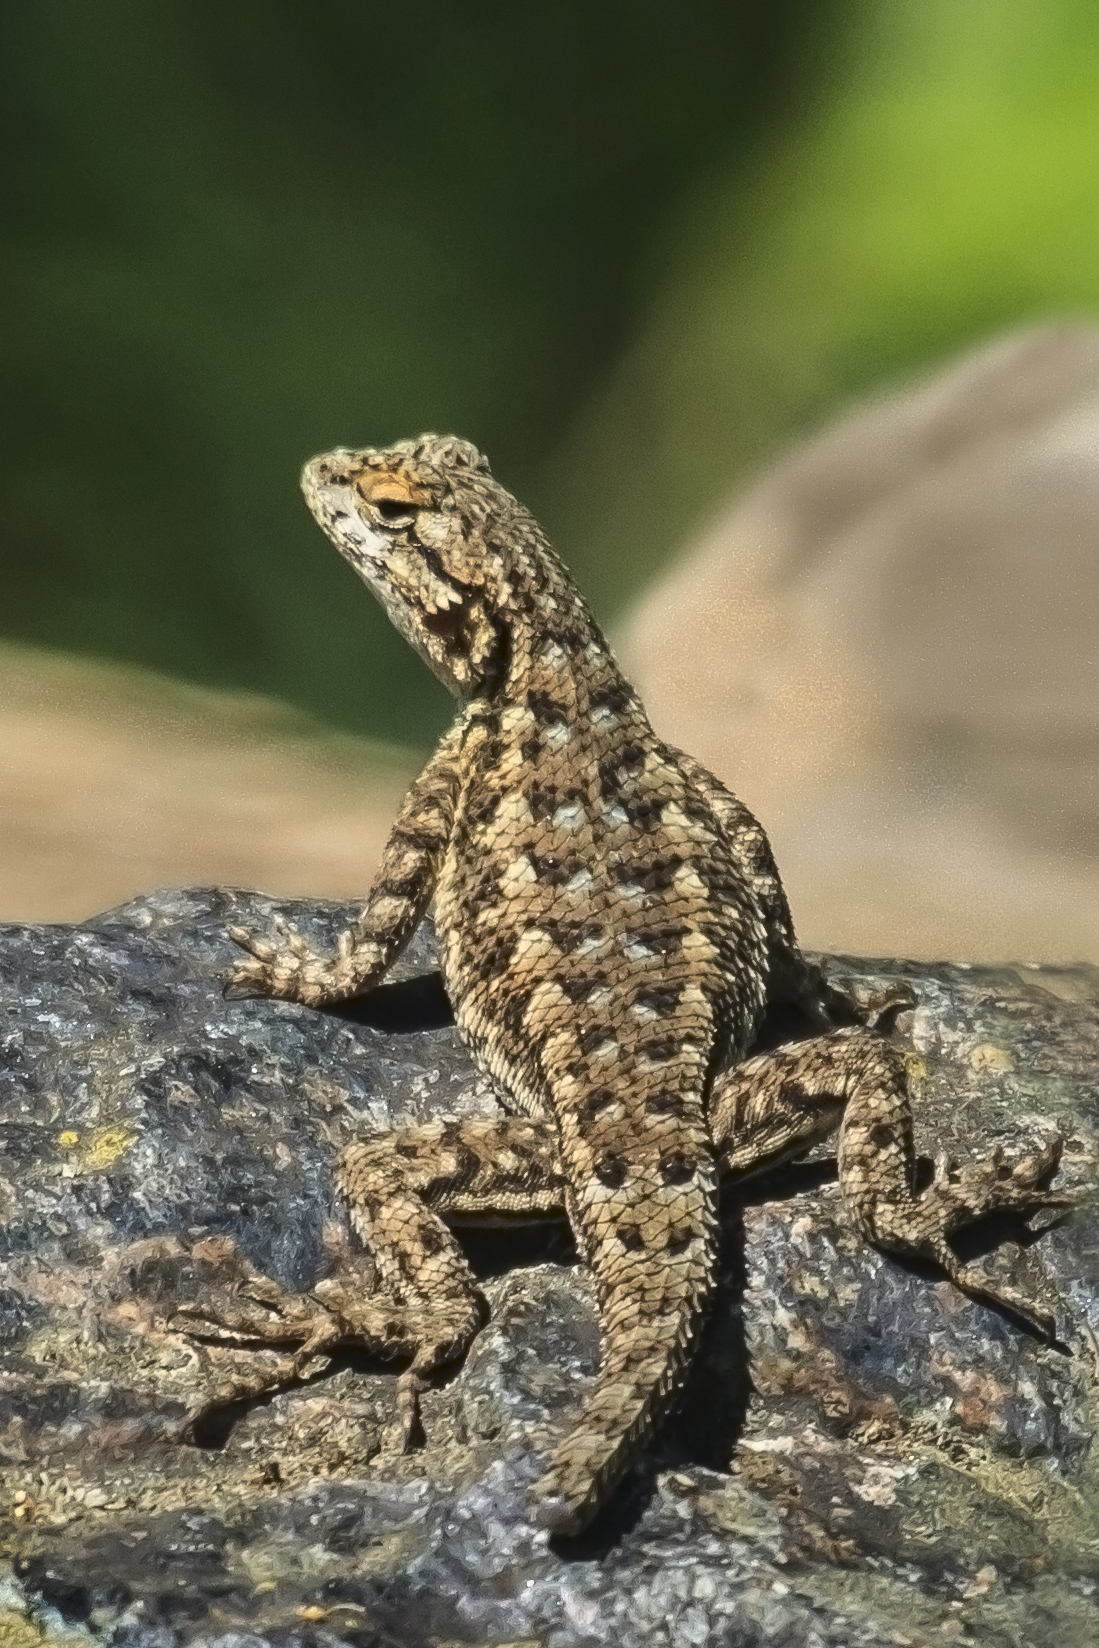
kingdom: Animalia
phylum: Chordata
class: Squamata
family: Phrynosomatidae
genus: Sceloporus
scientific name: Sceloporus occidentalis
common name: Western fence lizard
